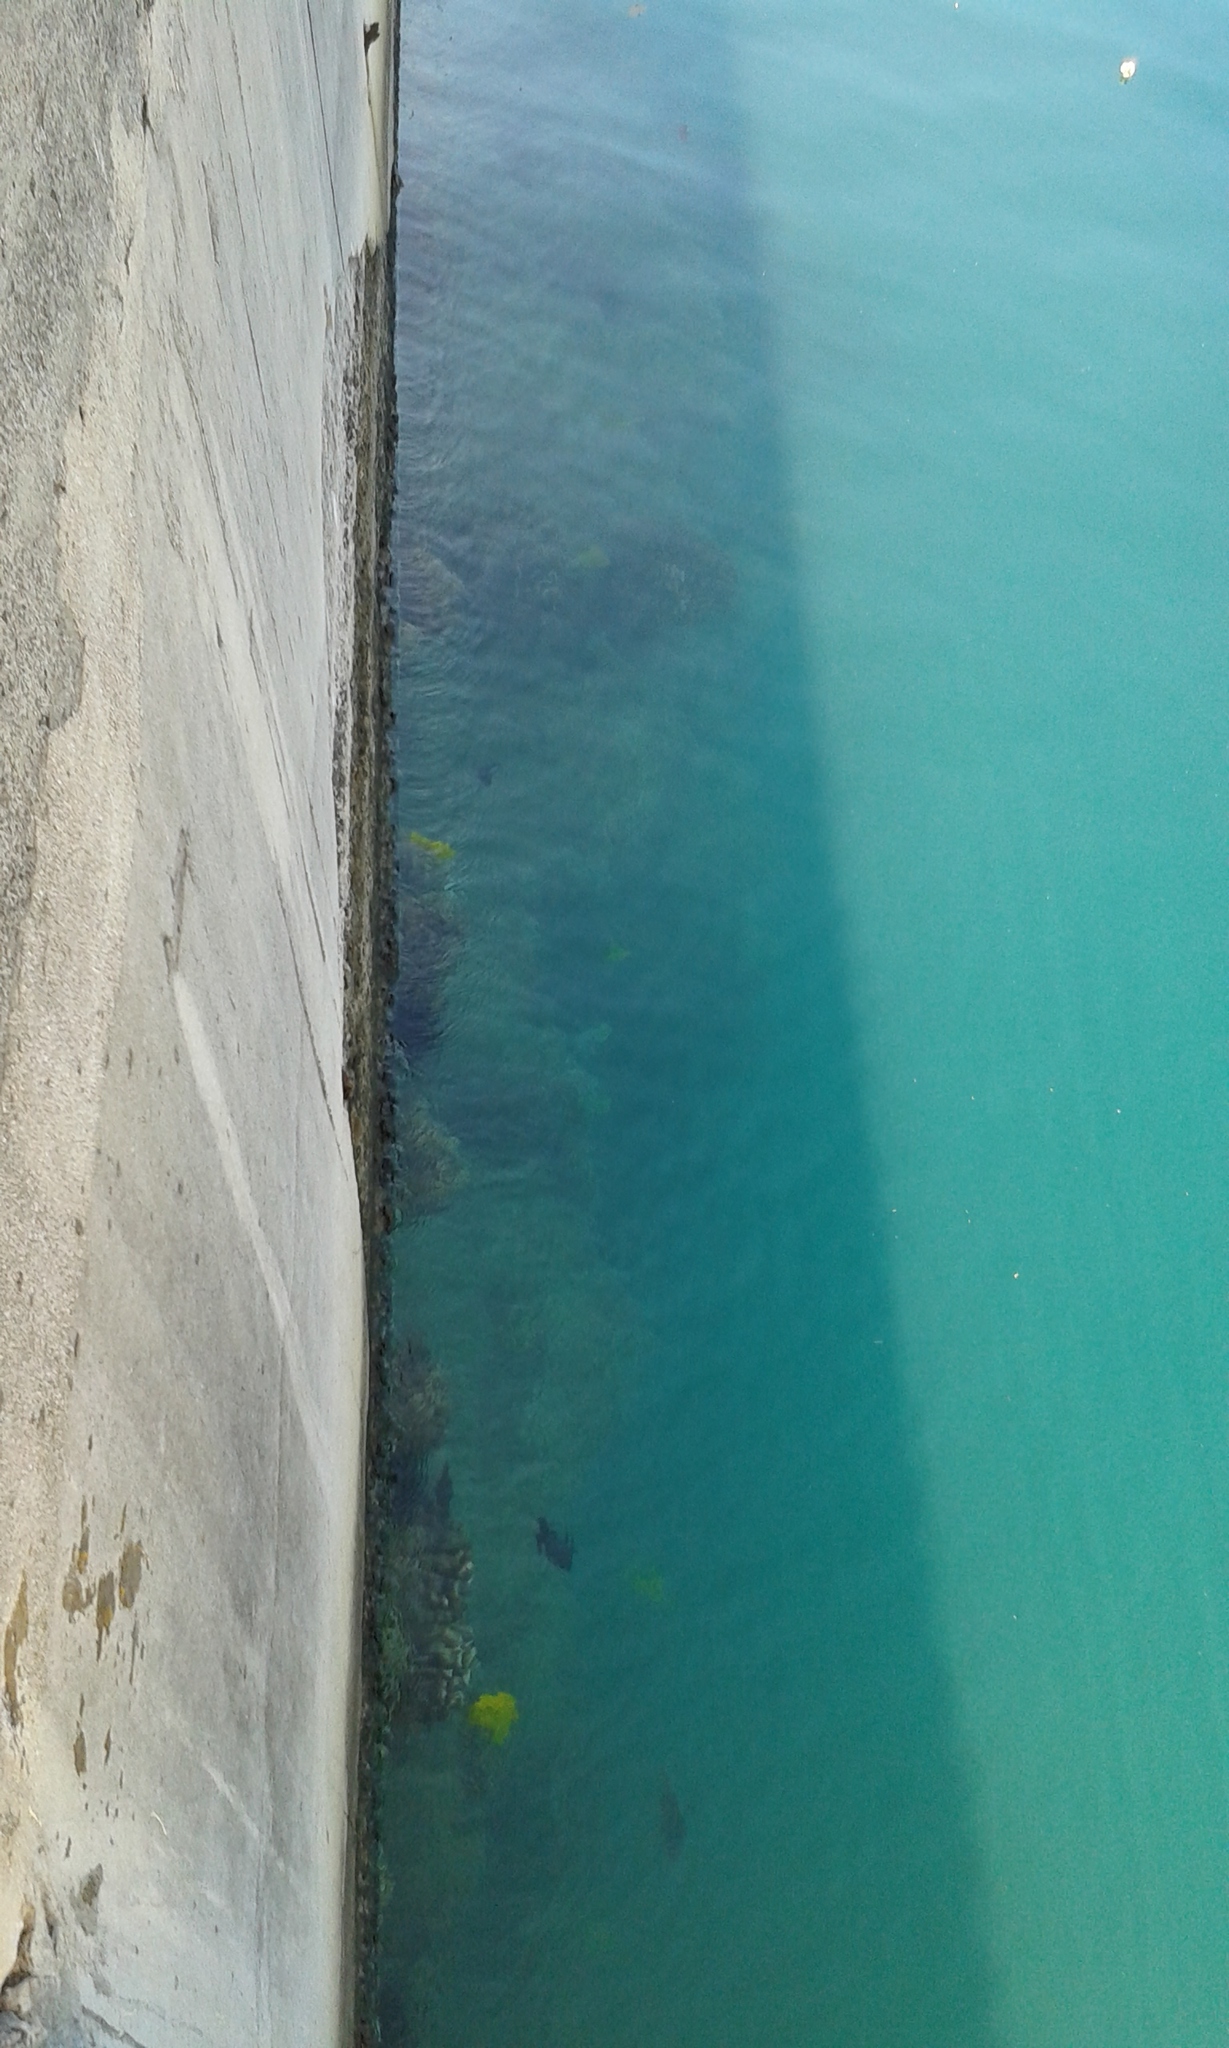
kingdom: Animalia
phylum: Chordata
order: Perciformes
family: Acanthuridae
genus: Zebrasoma
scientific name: Zebrasoma flavescens
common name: Yellow tang
